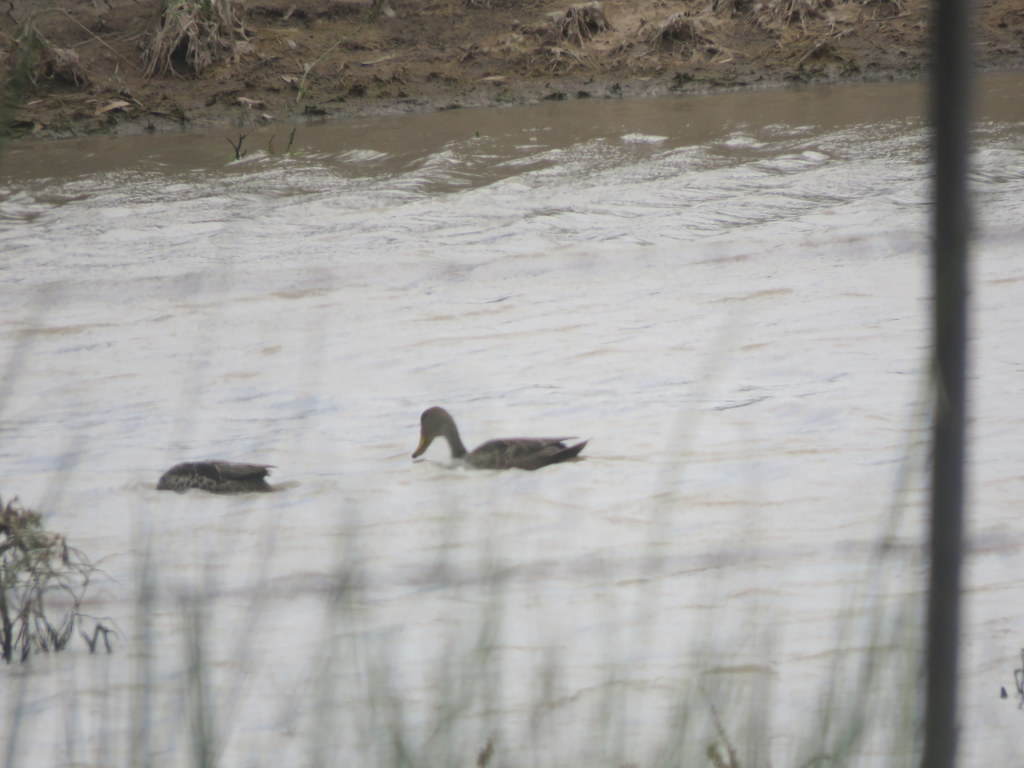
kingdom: Animalia
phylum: Chordata
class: Aves
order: Anseriformes
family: Anatidae
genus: Anas
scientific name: Anas georgica
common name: Yellow-billed pintail
